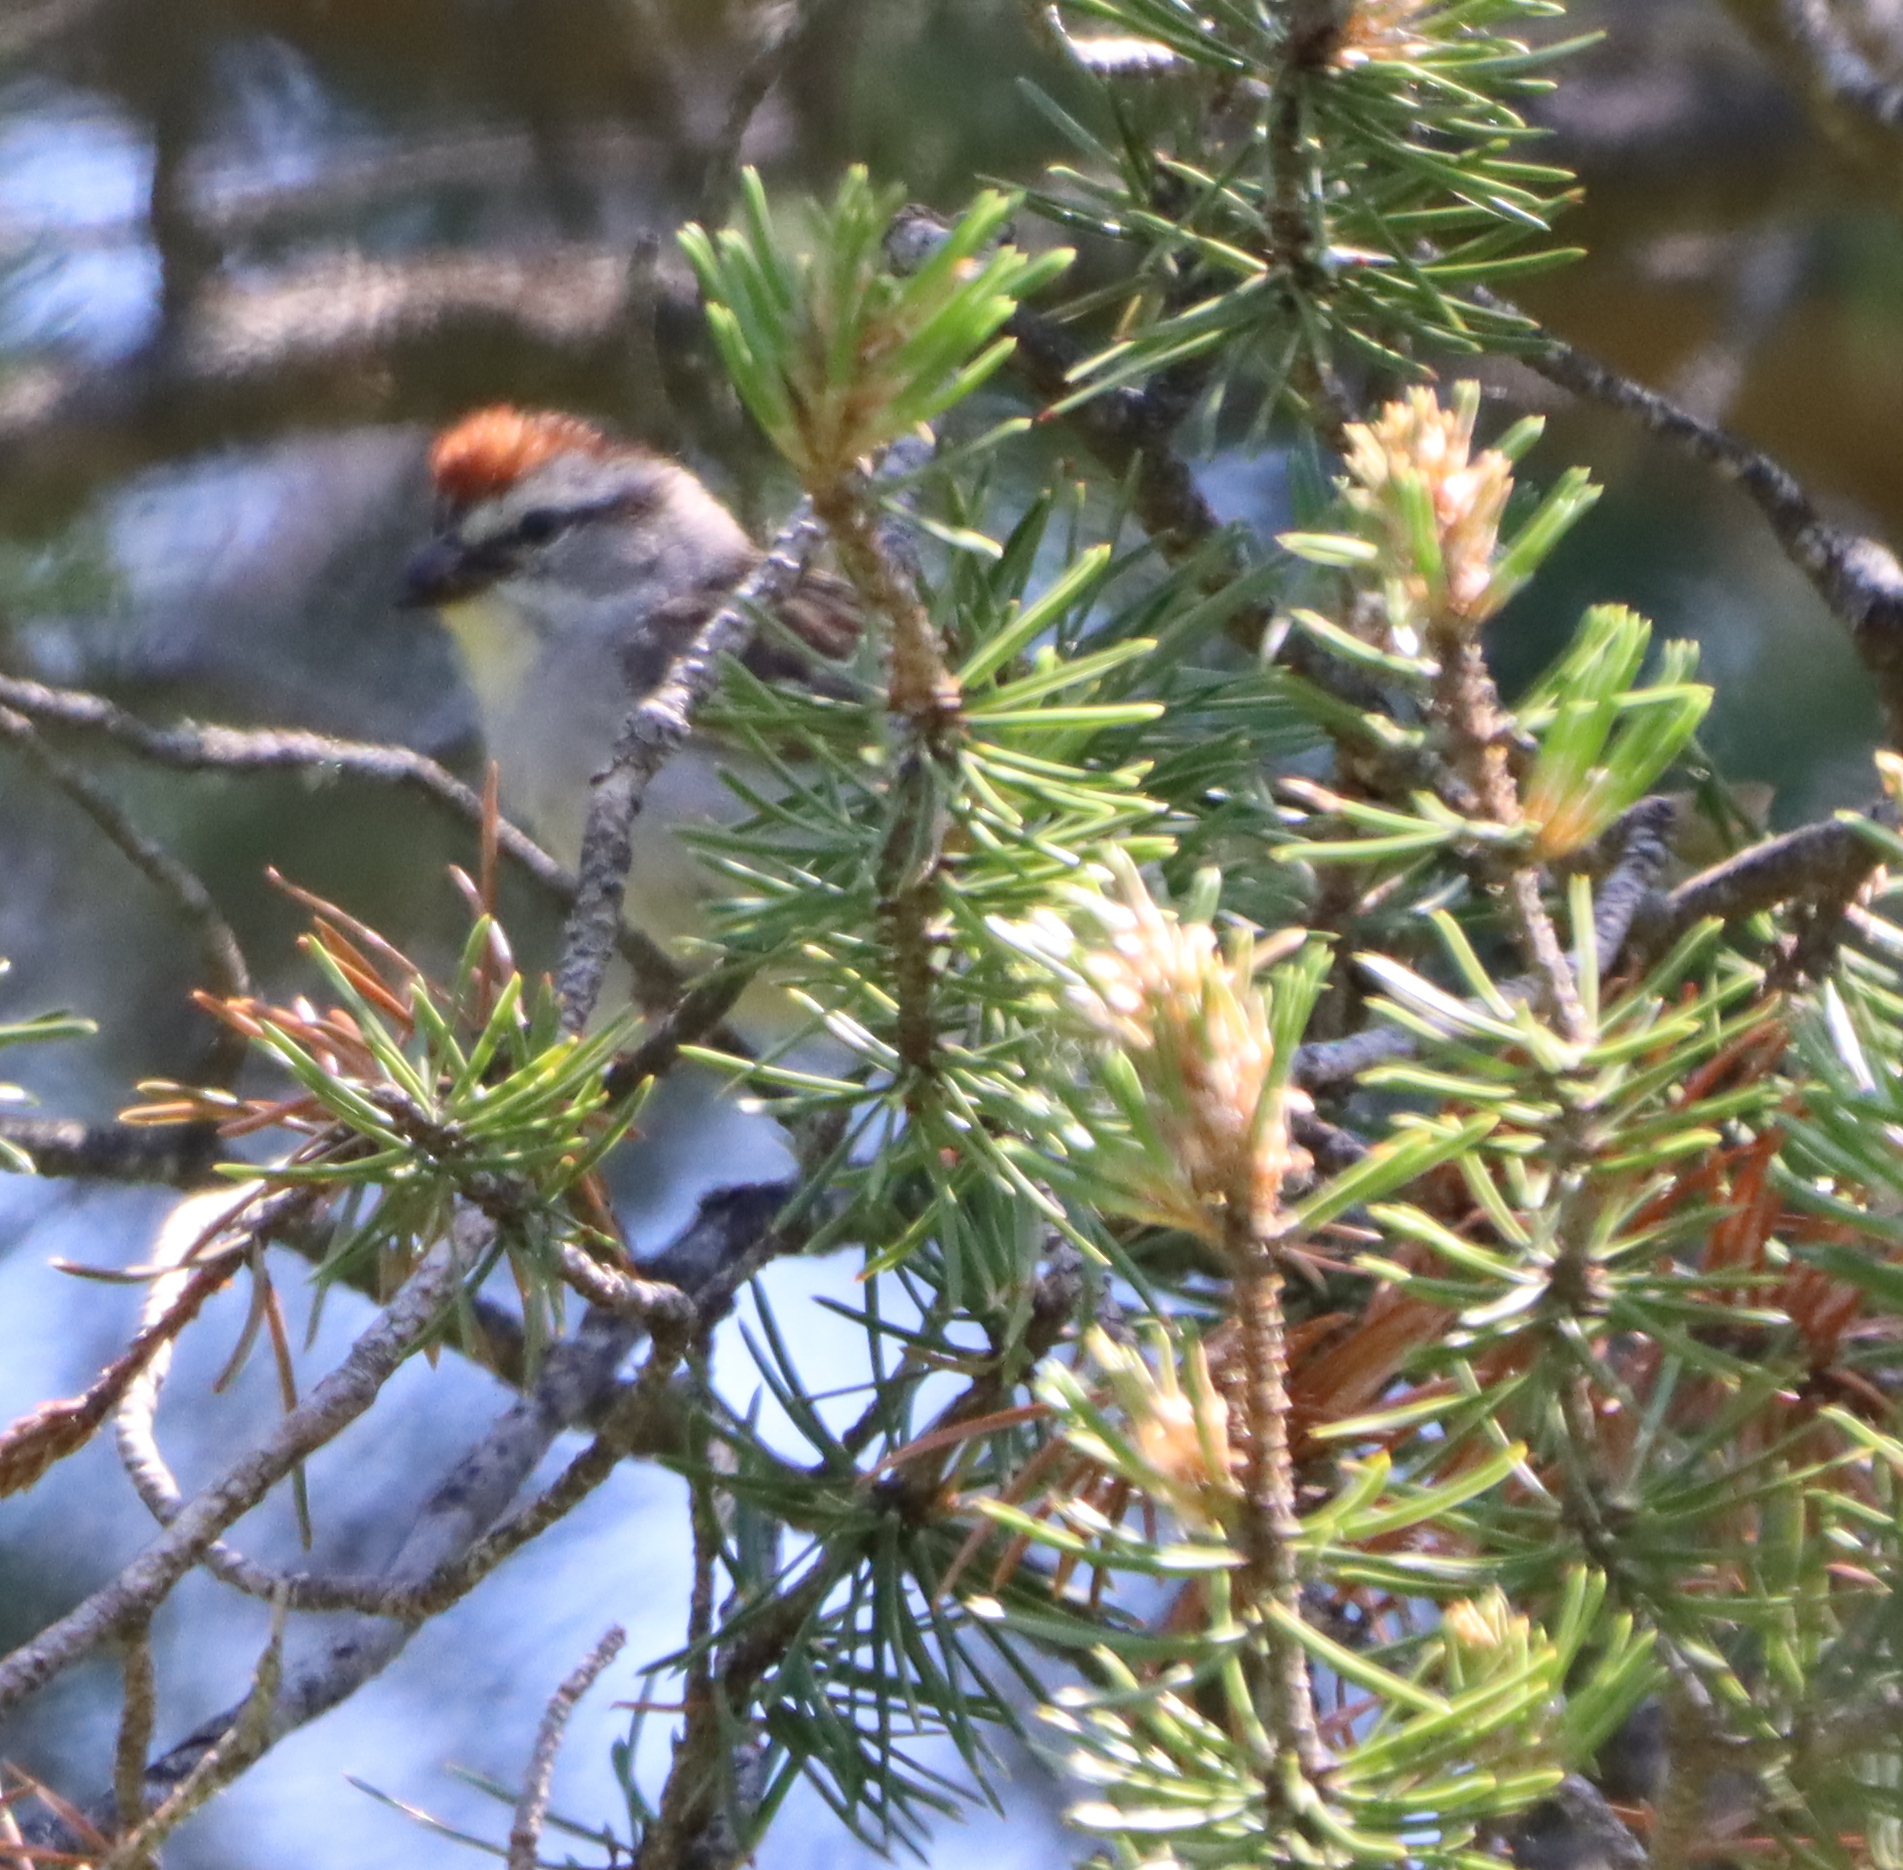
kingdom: Animalia
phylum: Chordata
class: Aves
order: Passeriformes
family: Passerellidae
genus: Spizella
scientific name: Spizella passerina
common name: Chipping sparrow
